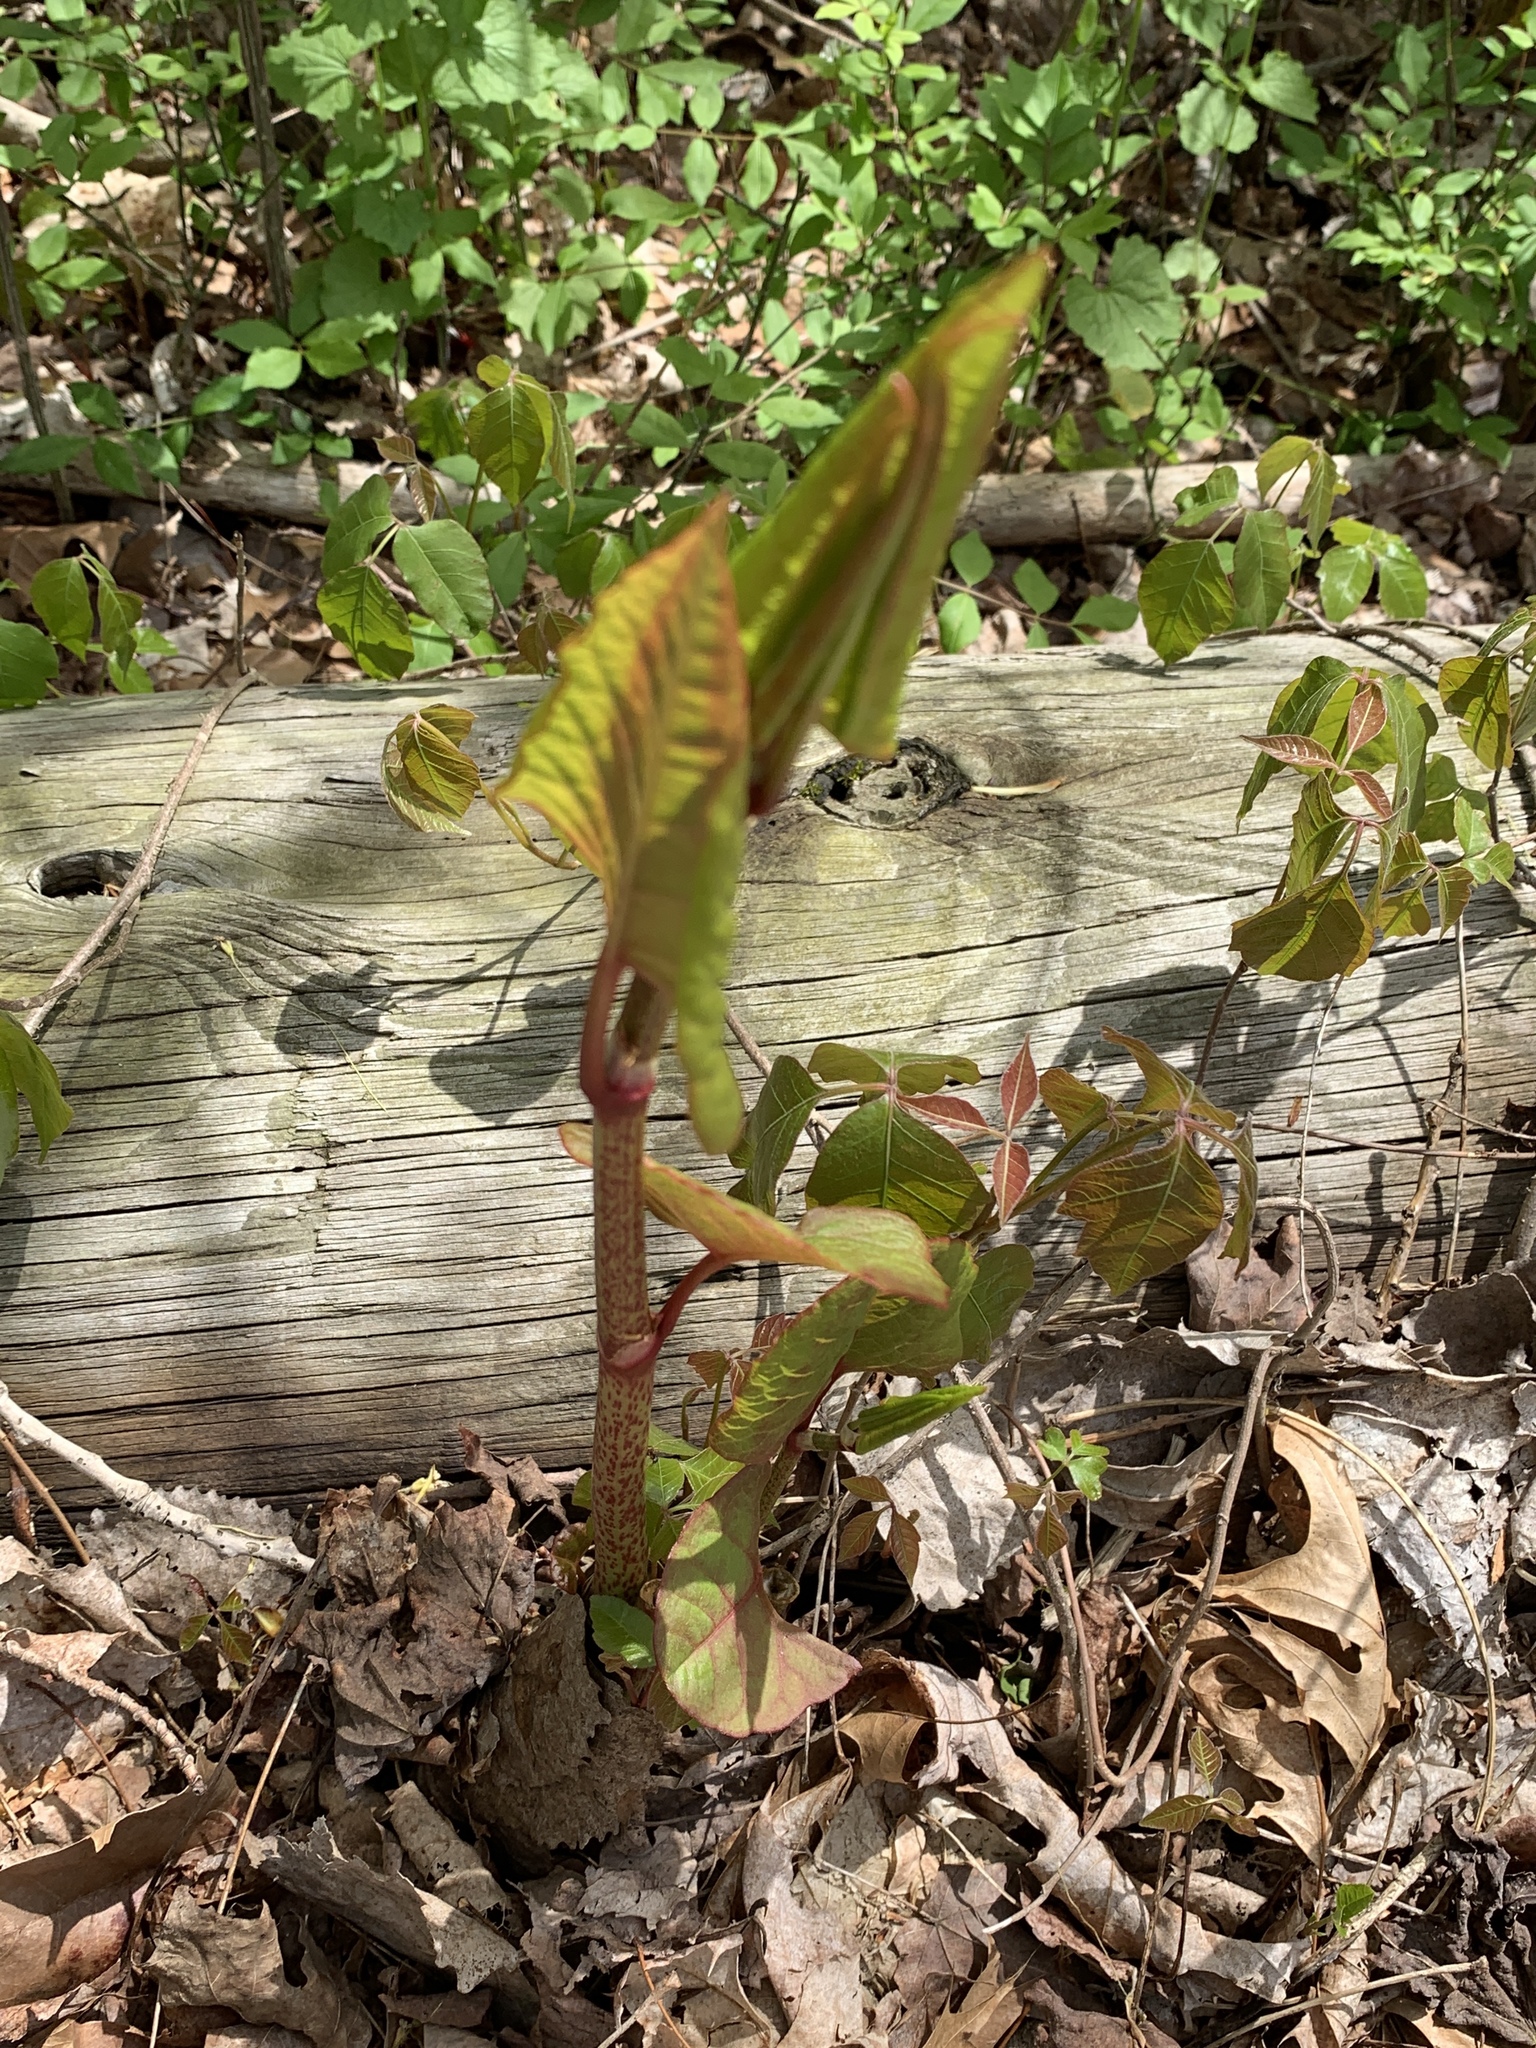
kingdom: Plantae
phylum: Tracheophyta
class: Magnoliopsida
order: Caryophyllales
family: Polygonaceae
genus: Reynoutria
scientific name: Reynoutria japonica
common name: Japanese knotweed
